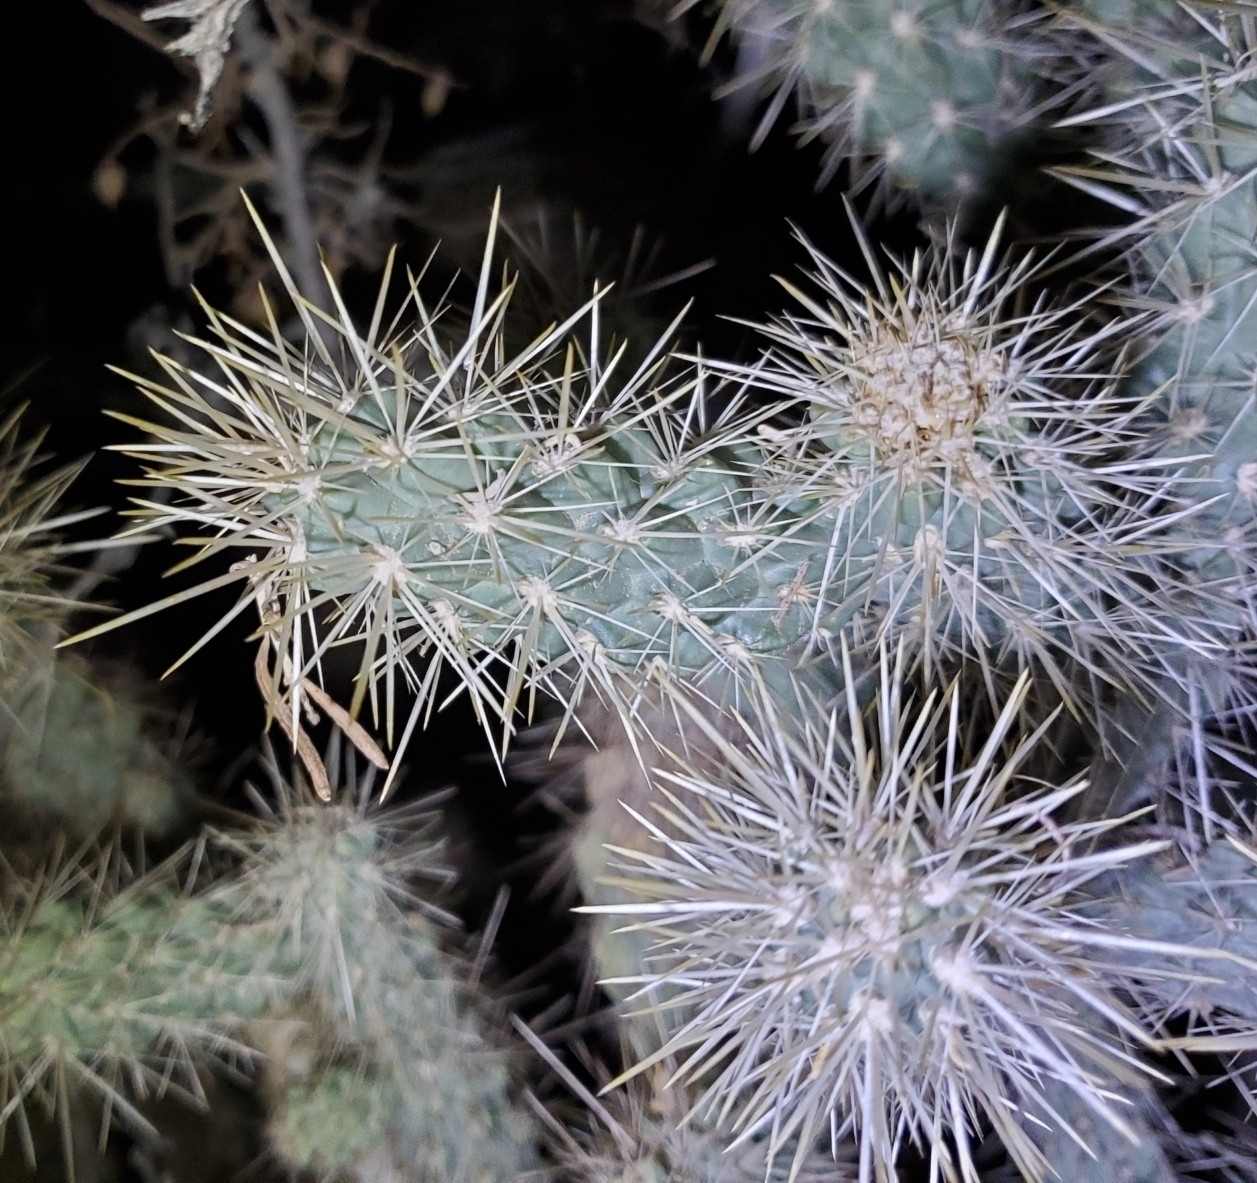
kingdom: Plantae
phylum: Tracheophyta
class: Magnoliopsida
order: Caryophyllales
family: Cactaceae
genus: Cylindropuntia
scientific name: Cylindropuntia echinocarpa
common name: Ground cholla
